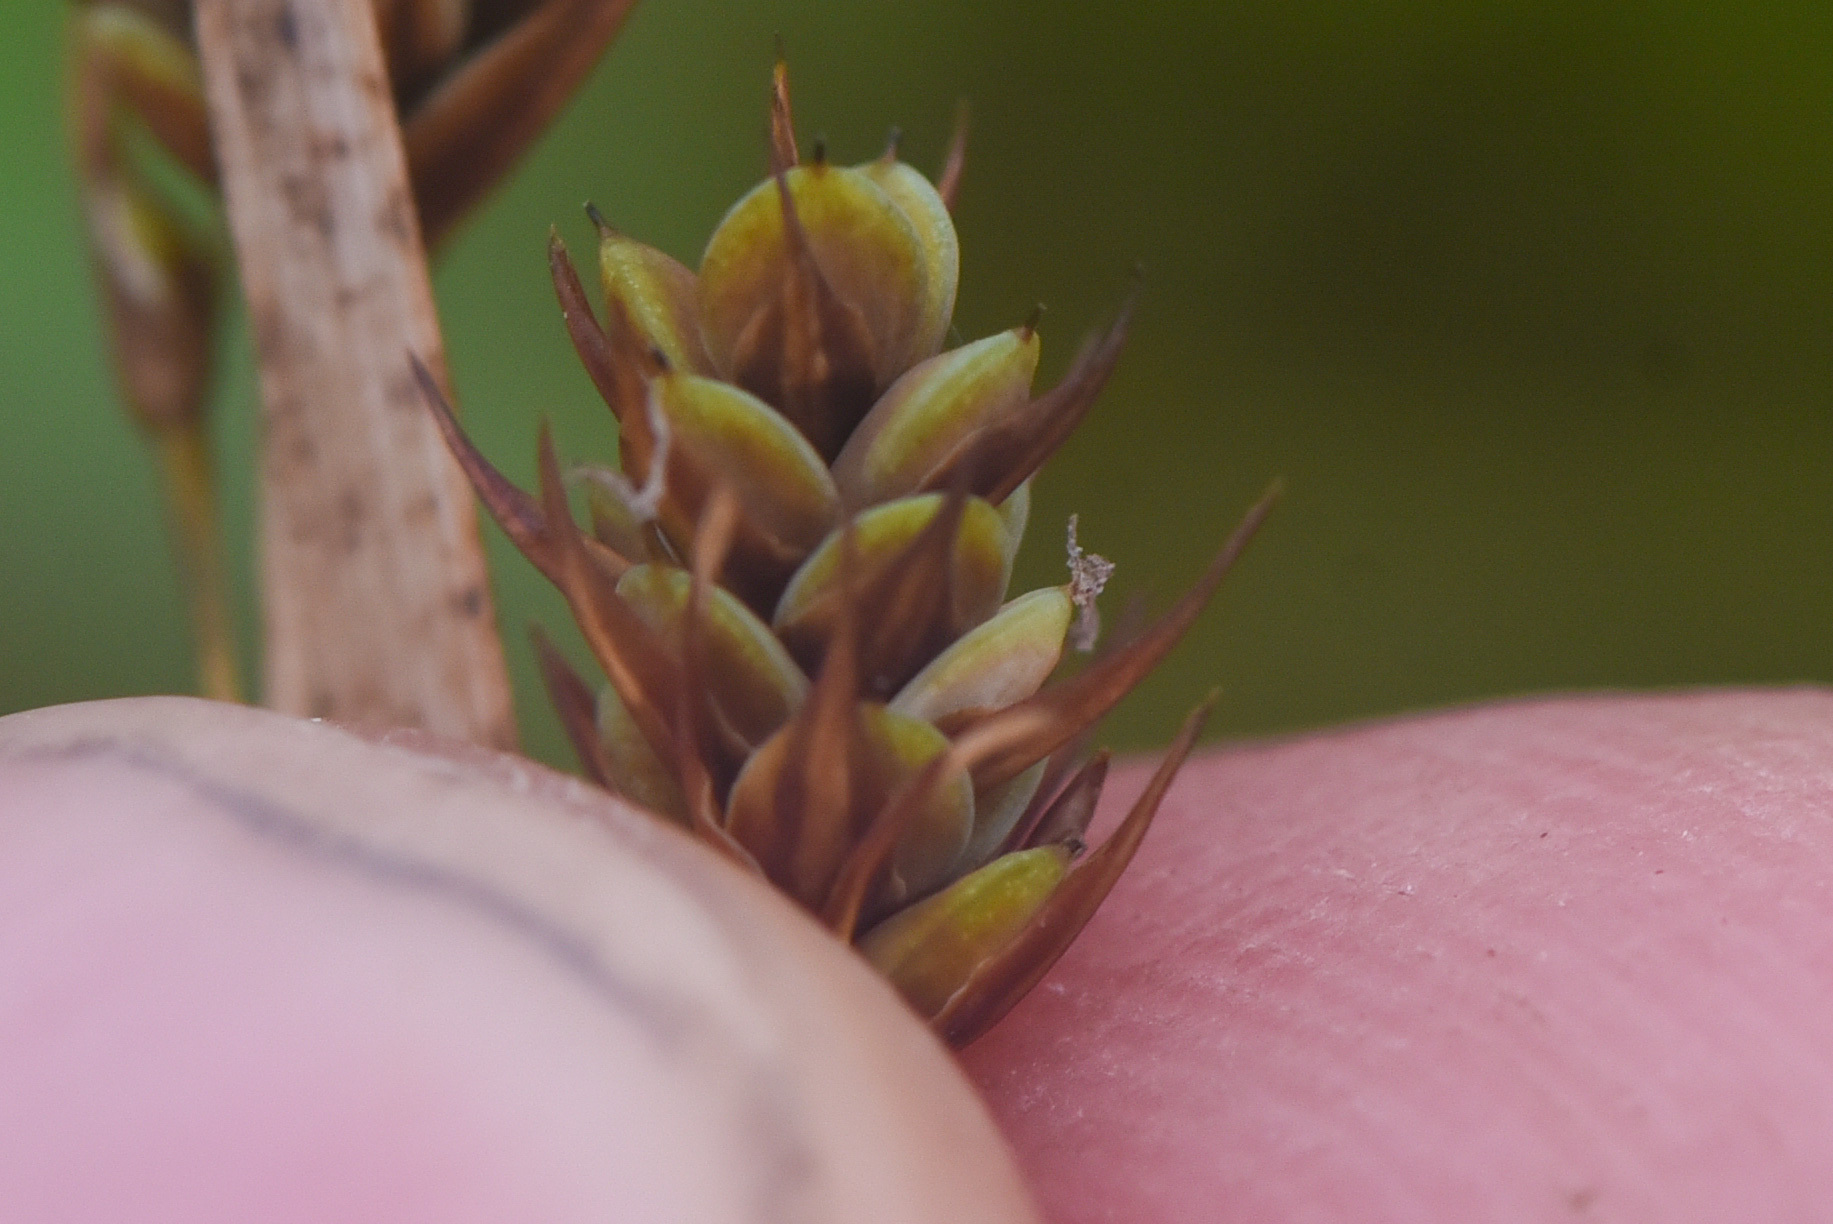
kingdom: Plantae
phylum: Tracheophyta
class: Liliopsida
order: Poales
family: Cyperaceae
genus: Carex
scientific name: Carex magellanica
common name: Bog sedge
